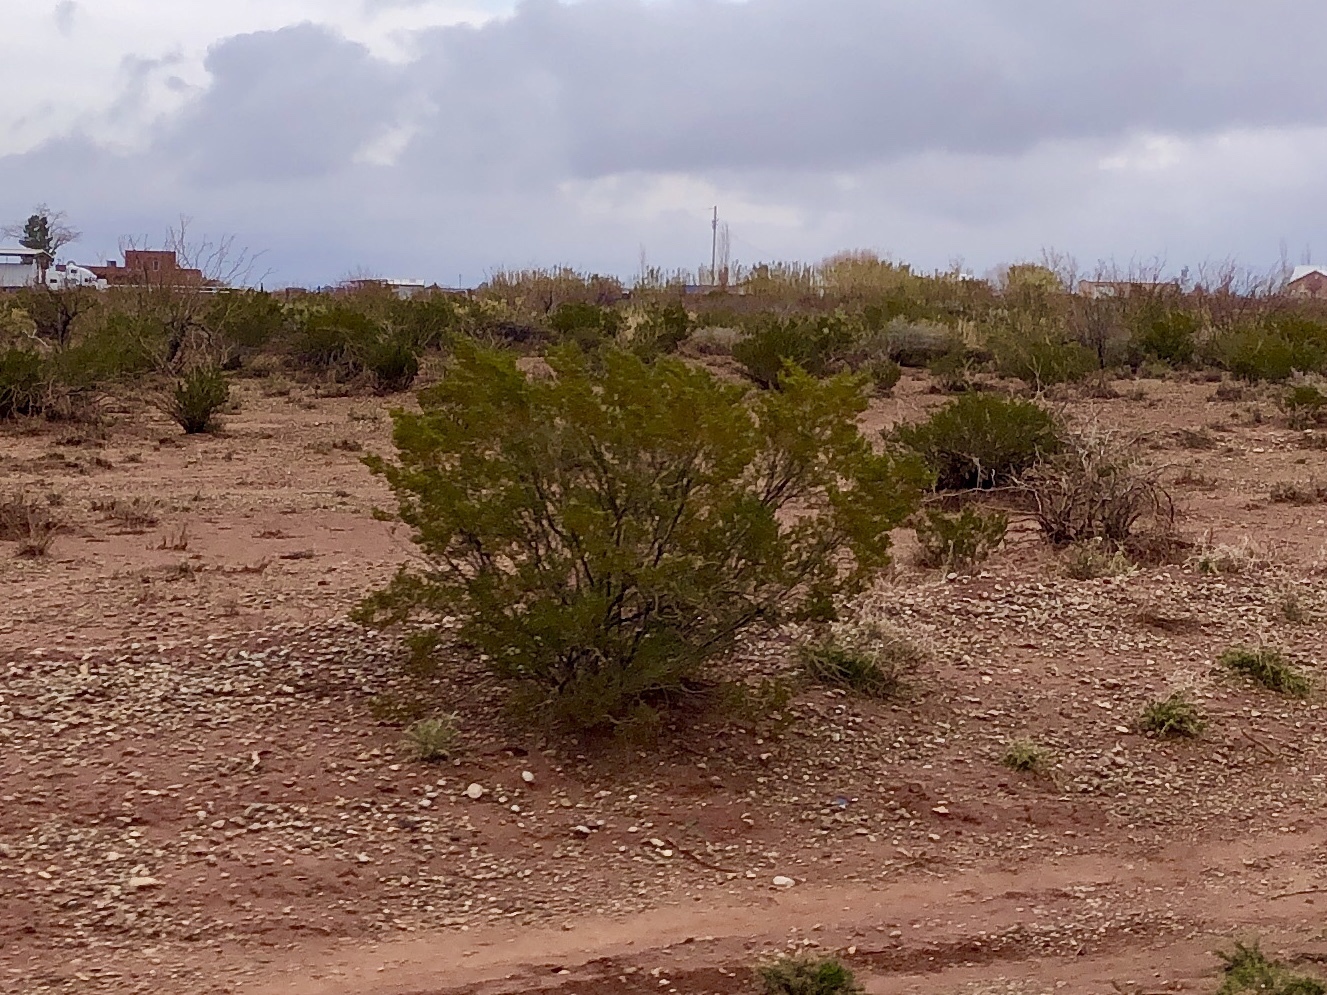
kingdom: Plantae
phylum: Tracheophyta
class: Magnoliopsida
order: Zygophyllales
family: Zygophyllaceae
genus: Larrea
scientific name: Larrea tridentata
